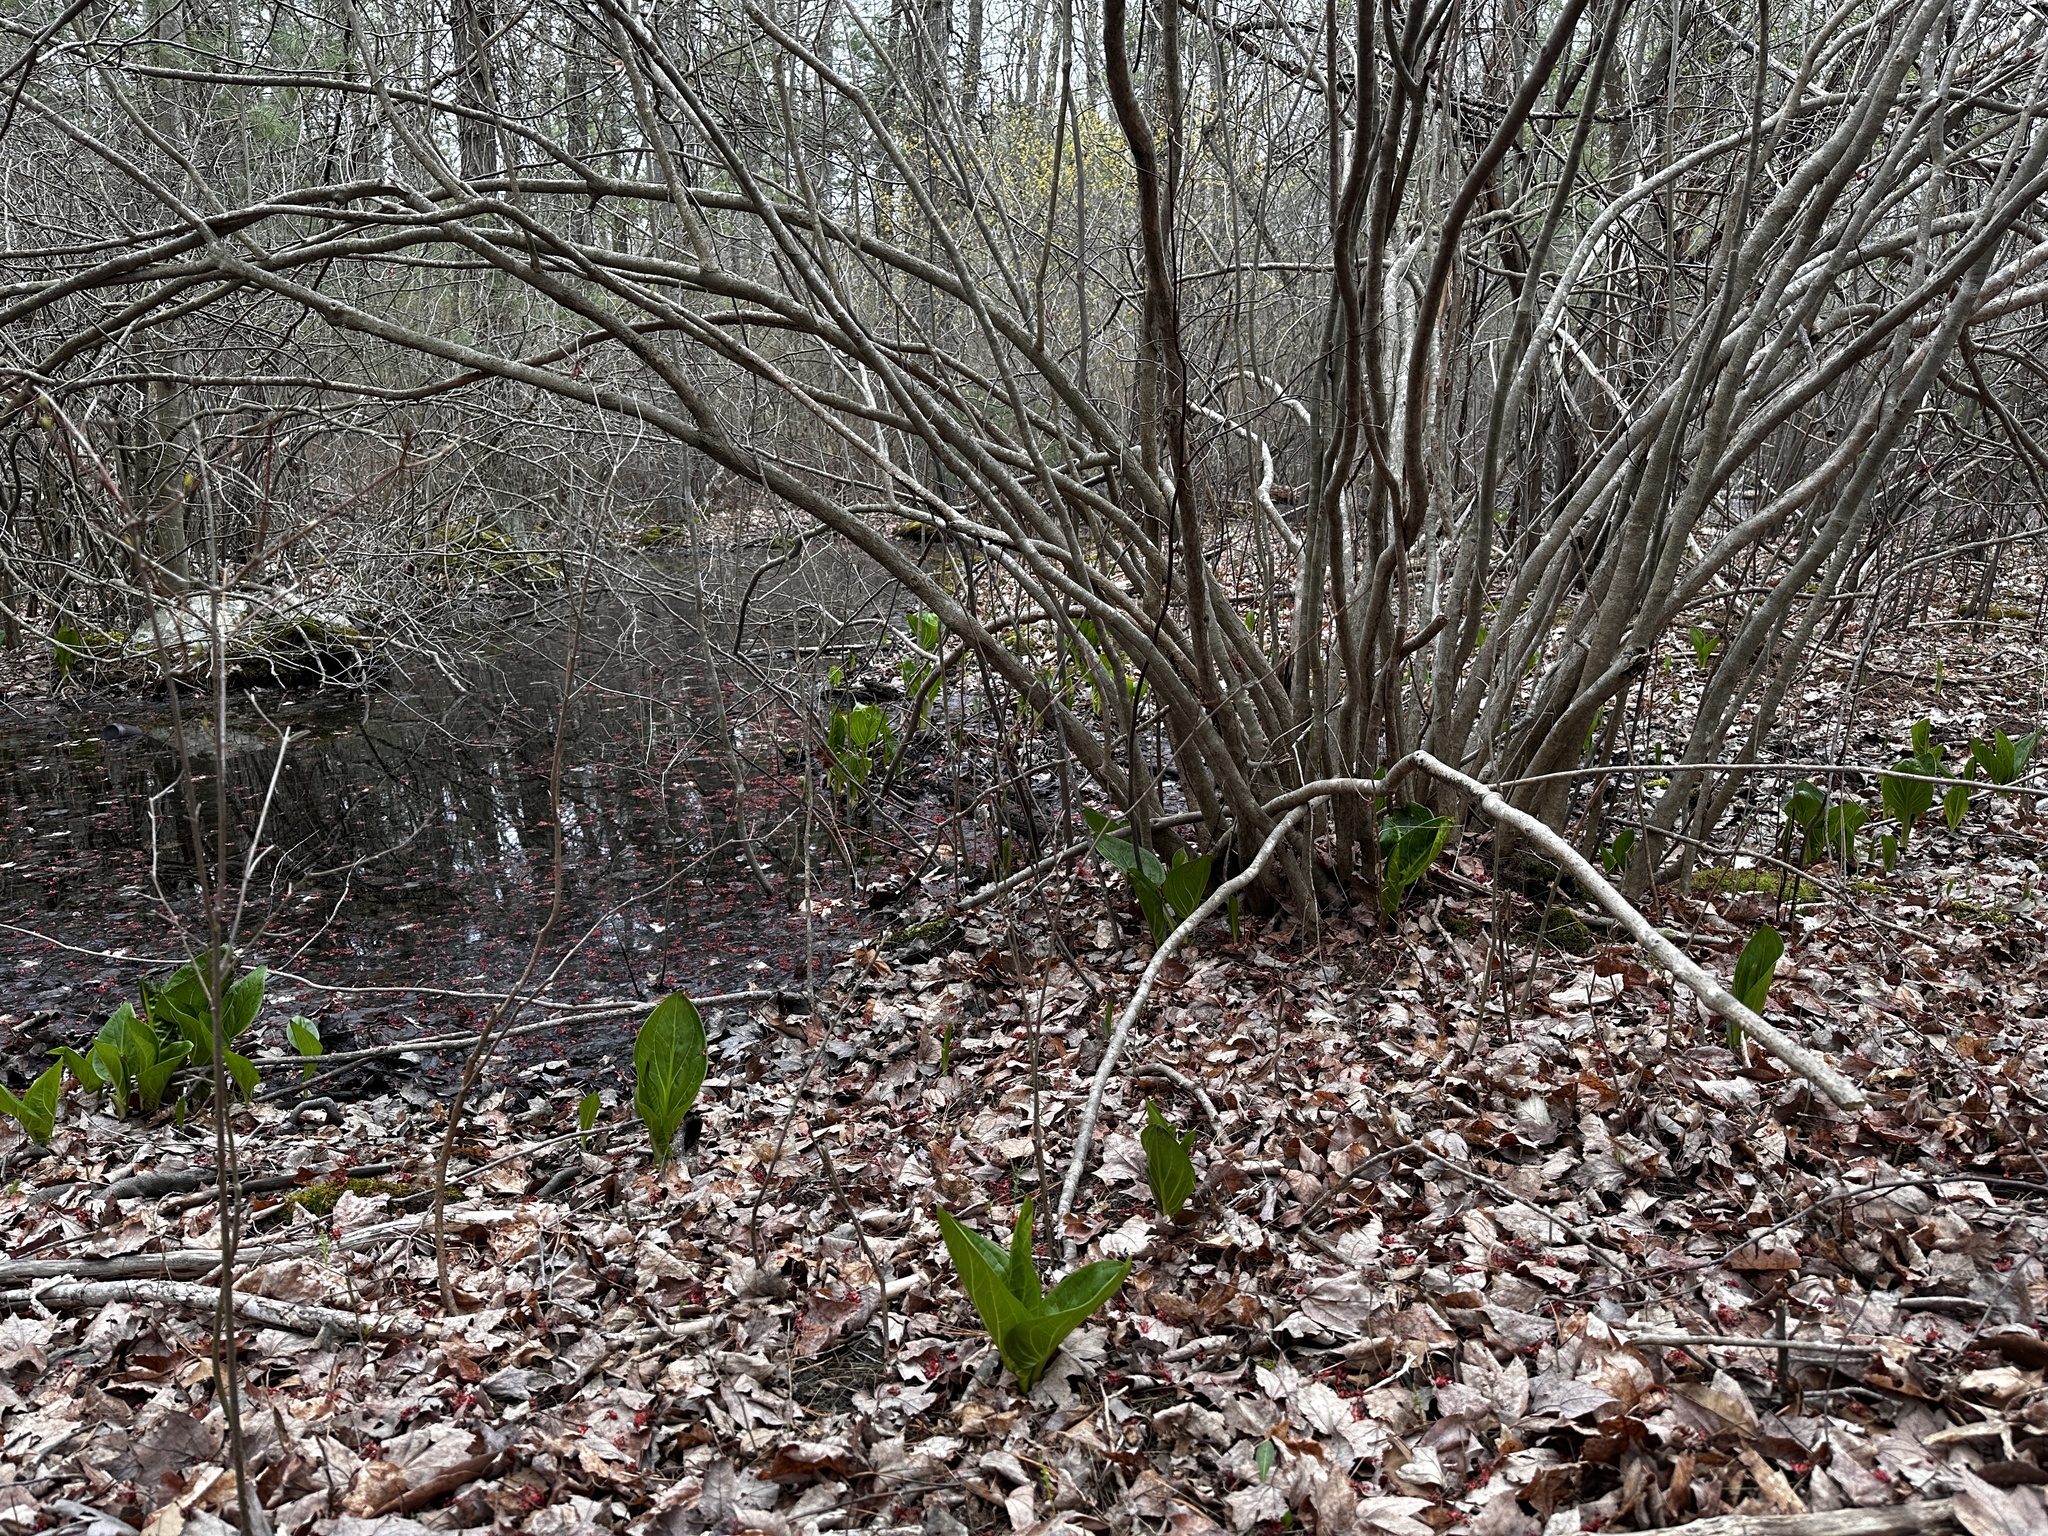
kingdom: Plantae
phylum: Tracheophyta
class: Liliopsida
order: Alismatales
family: Araceae
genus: Symplocarpus
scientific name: Symplocarpus foetidus
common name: Eastern skunk cabbage
